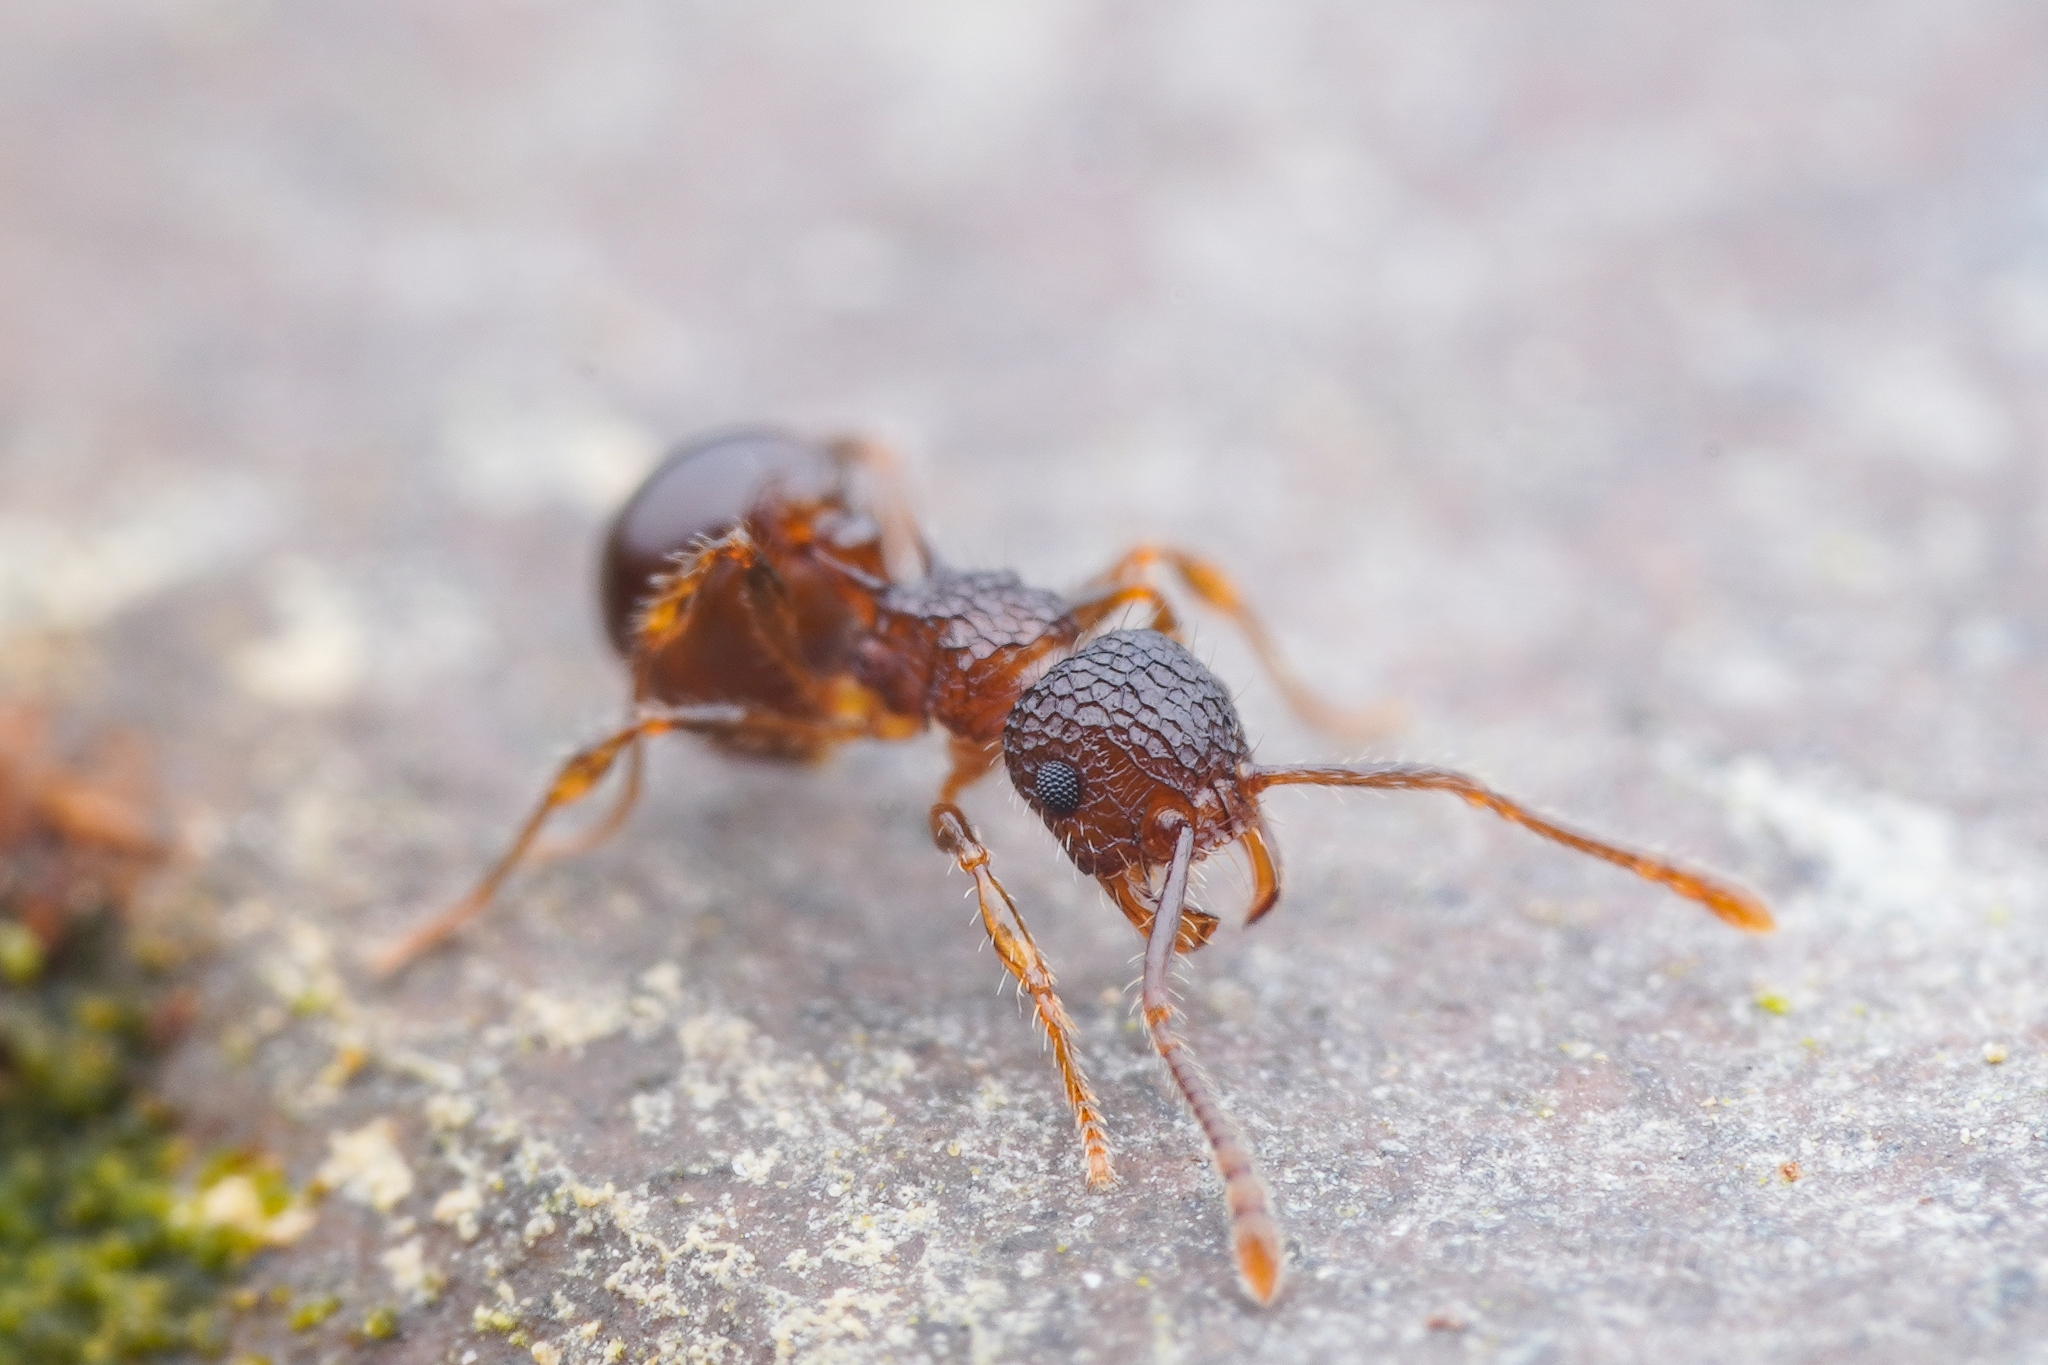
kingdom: Animalia
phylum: Arthropoda
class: Insecta
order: Hymenoptera
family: Formicidae
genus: Pristomyrmex
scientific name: Pristomyrmex punctatus
